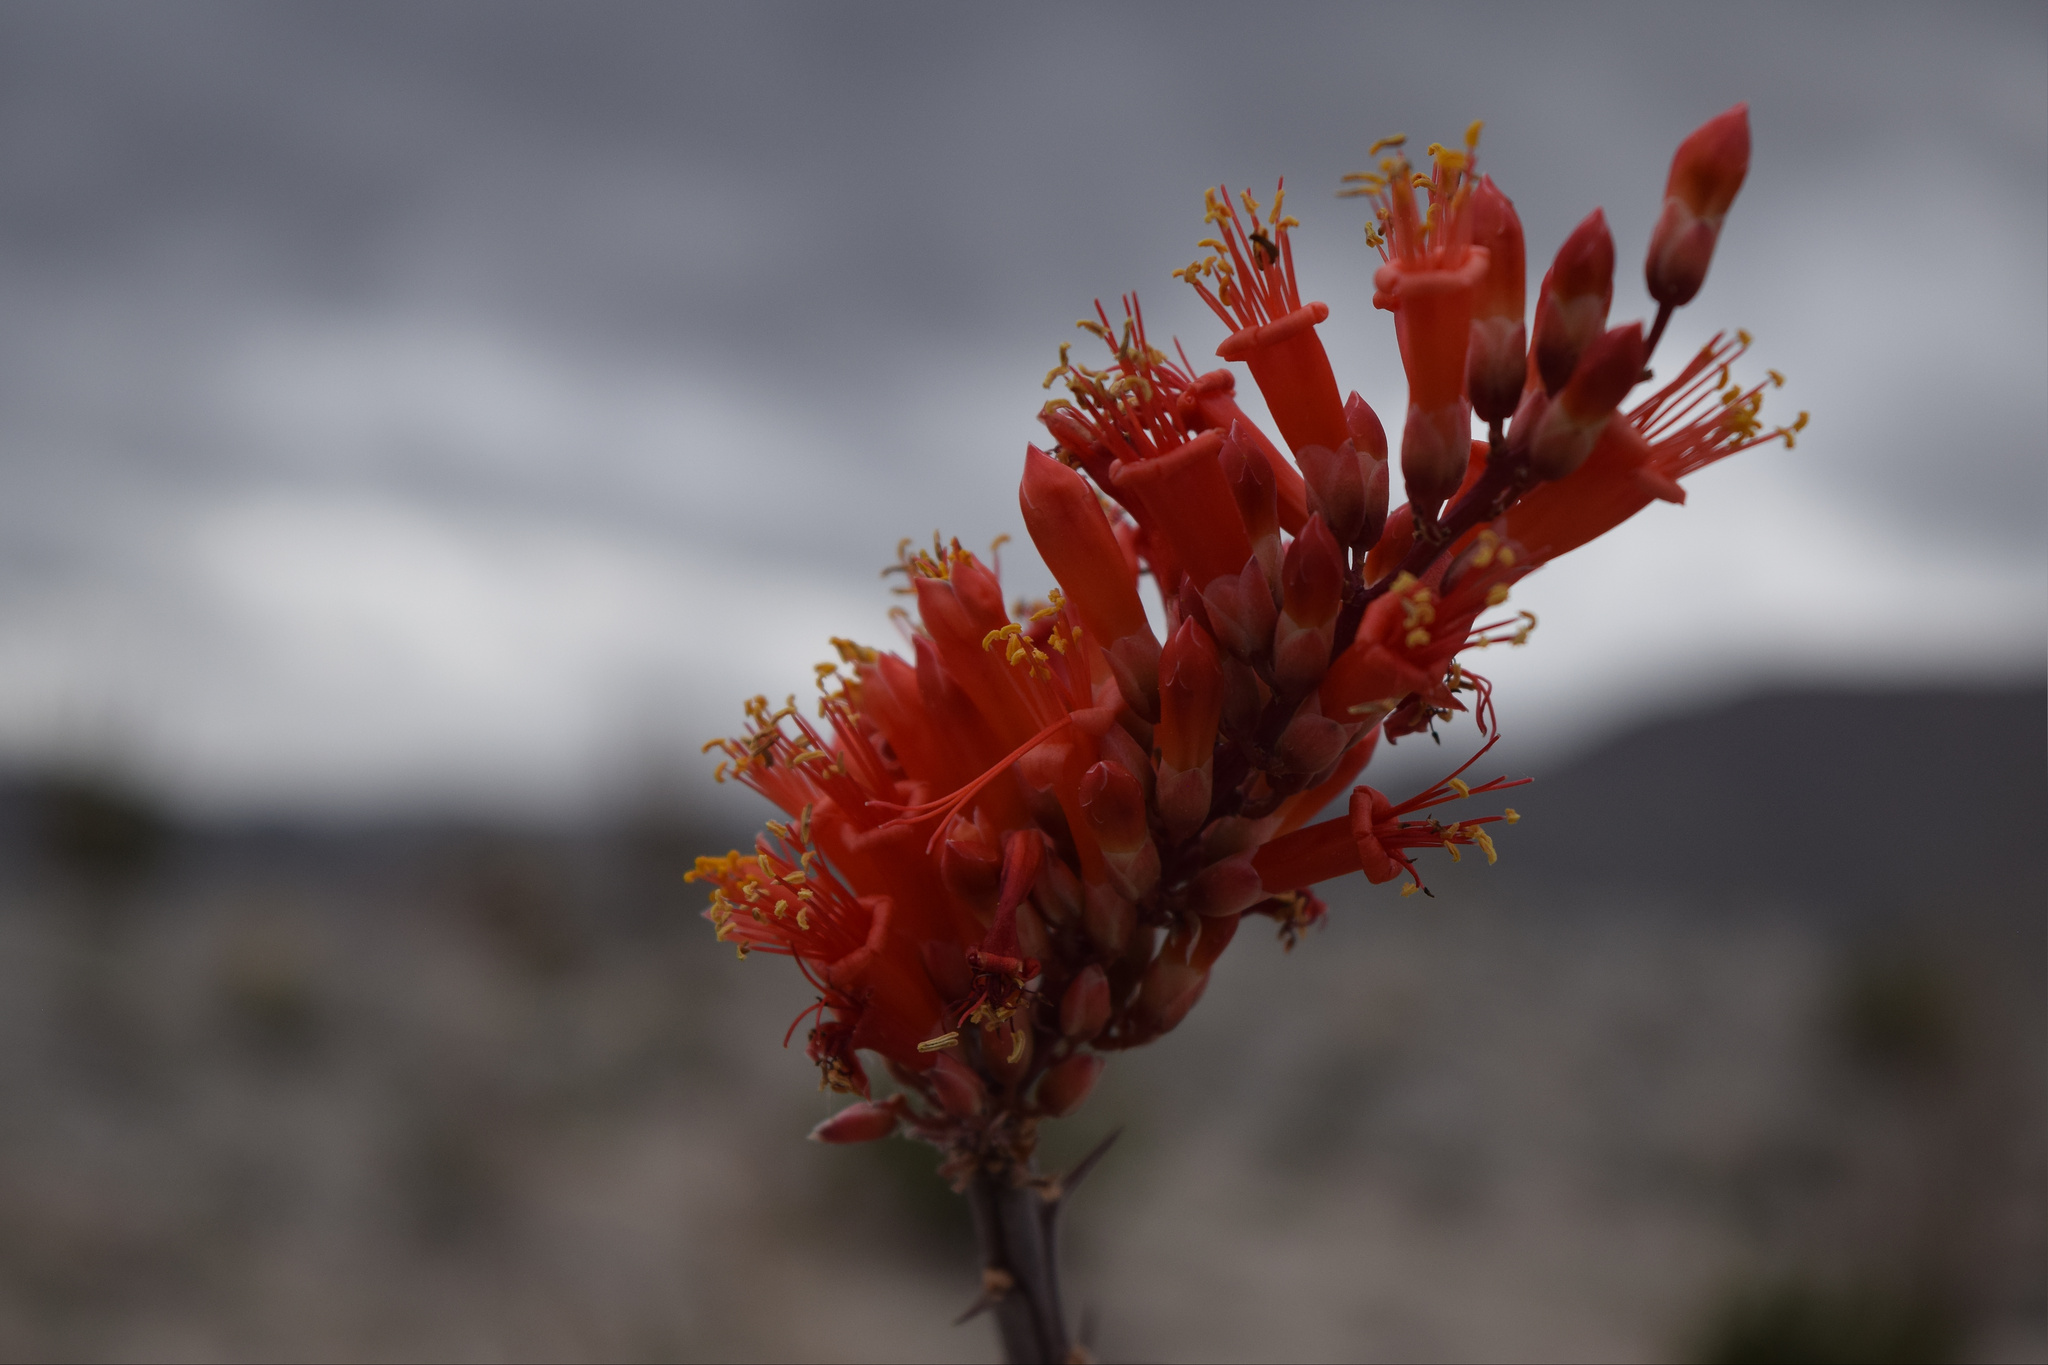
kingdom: Plantae
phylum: Tracheophyta
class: Magnoliopsida
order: Ericales
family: Fouquieriaceae
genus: Fouquieria
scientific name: Fouquieria splendens
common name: Vine-cactus
